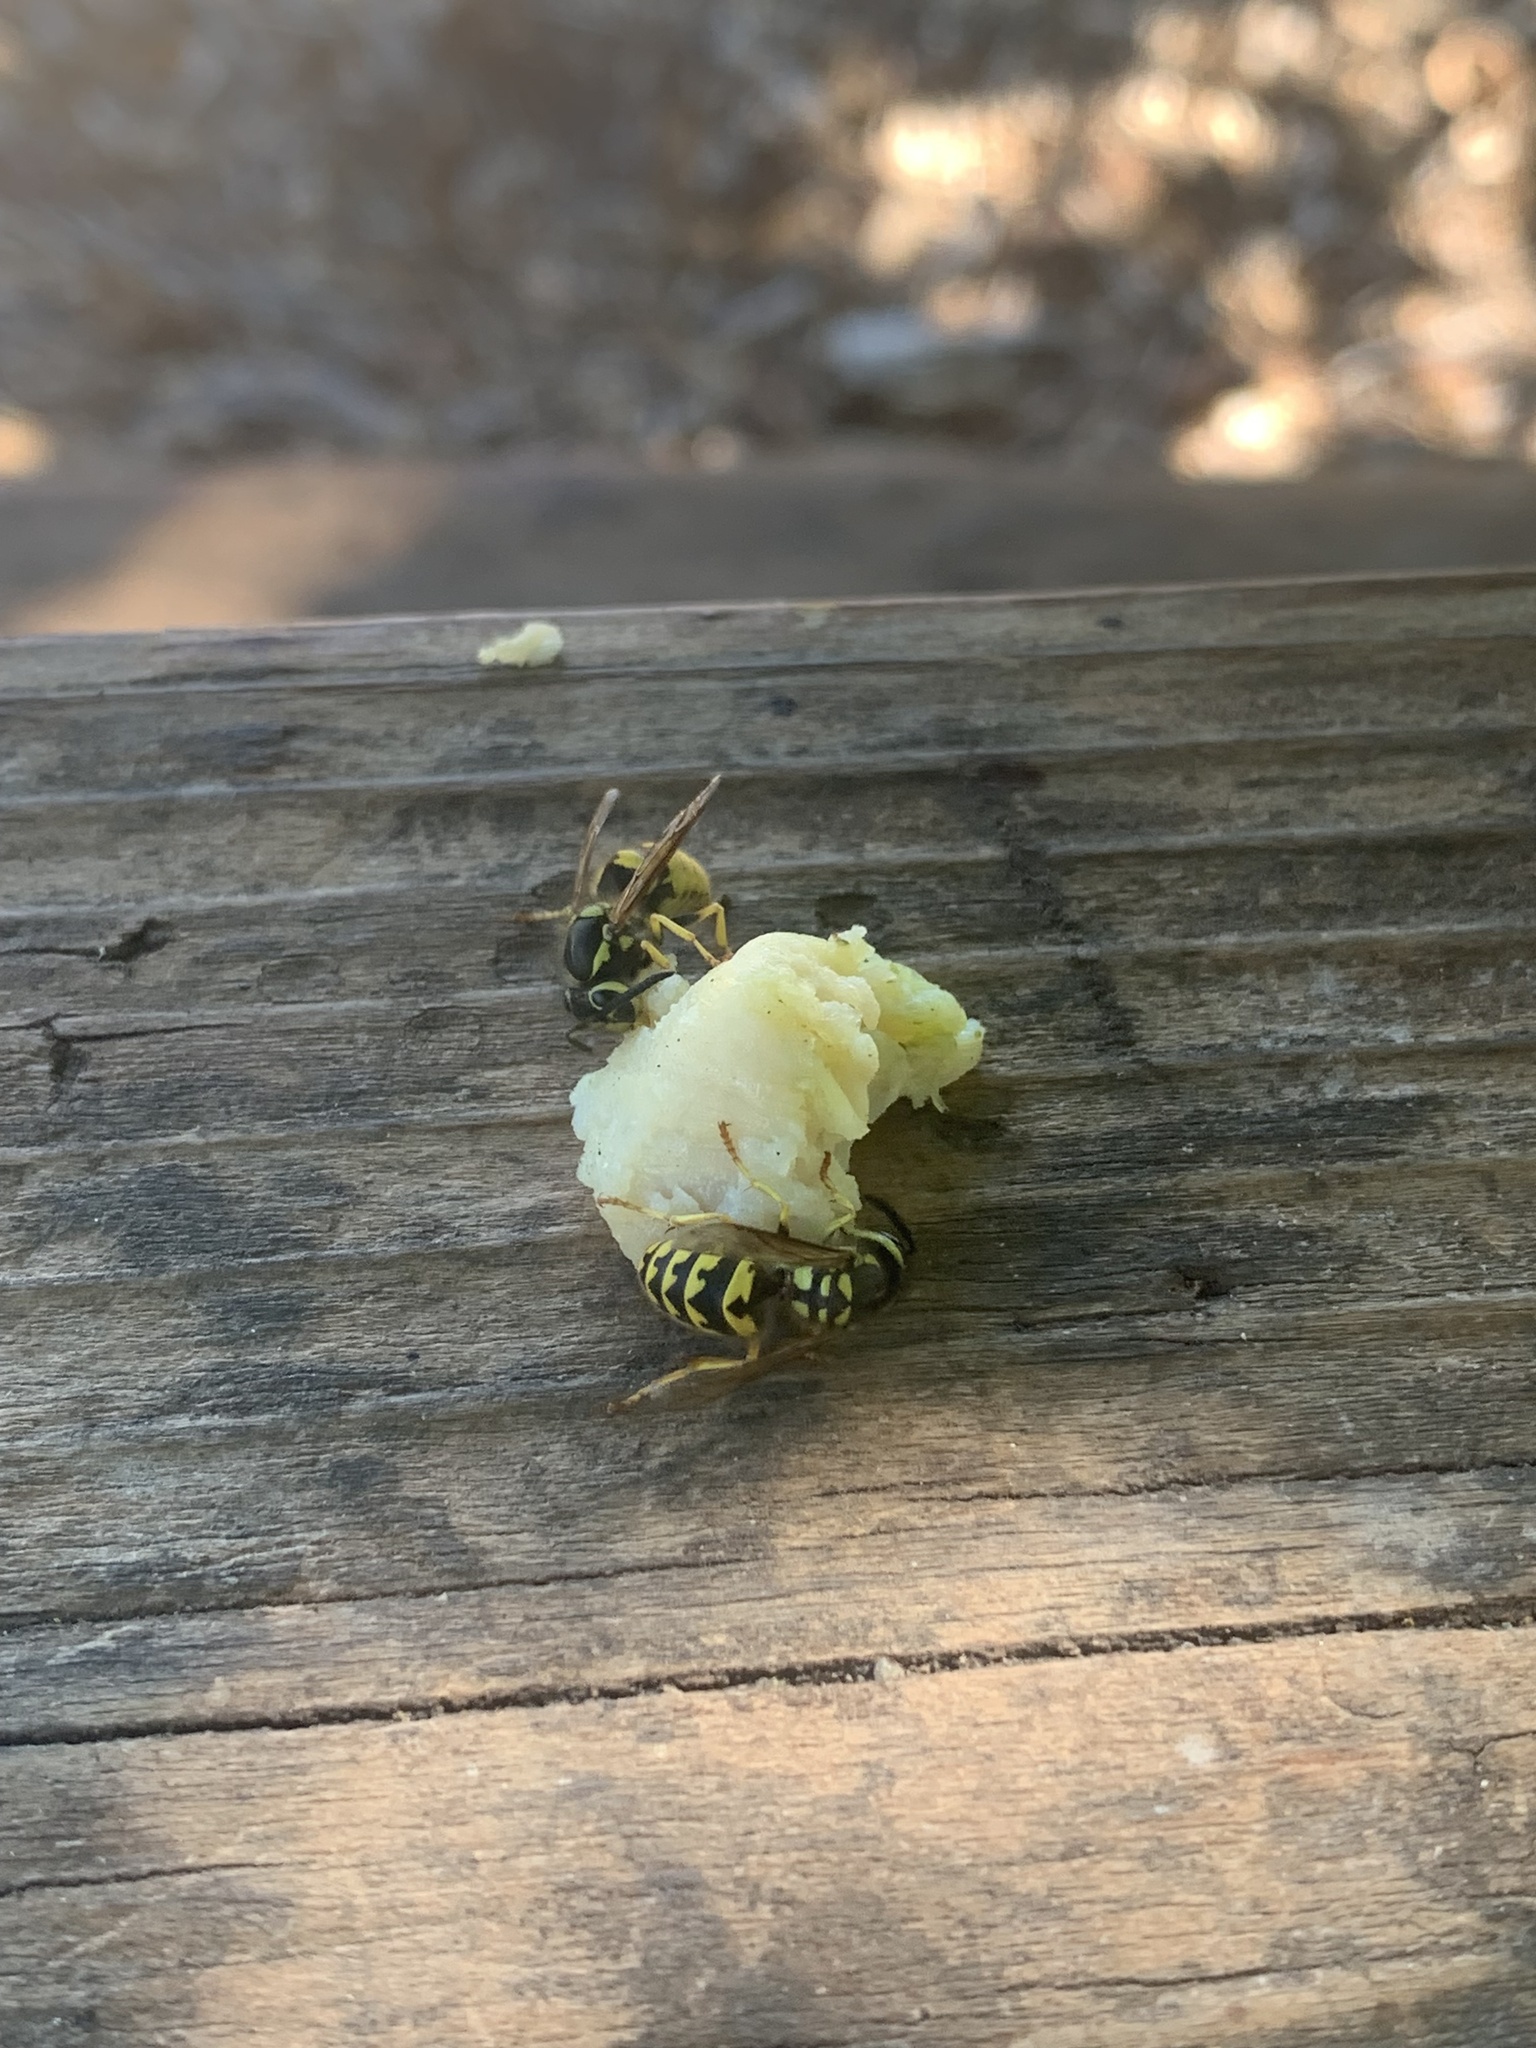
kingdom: Animalia
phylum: Arthropoda
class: Insecta
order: Hymenoptera
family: Vespidae
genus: Vespula
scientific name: Vespula pensylvanica
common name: Western yellowjacket
